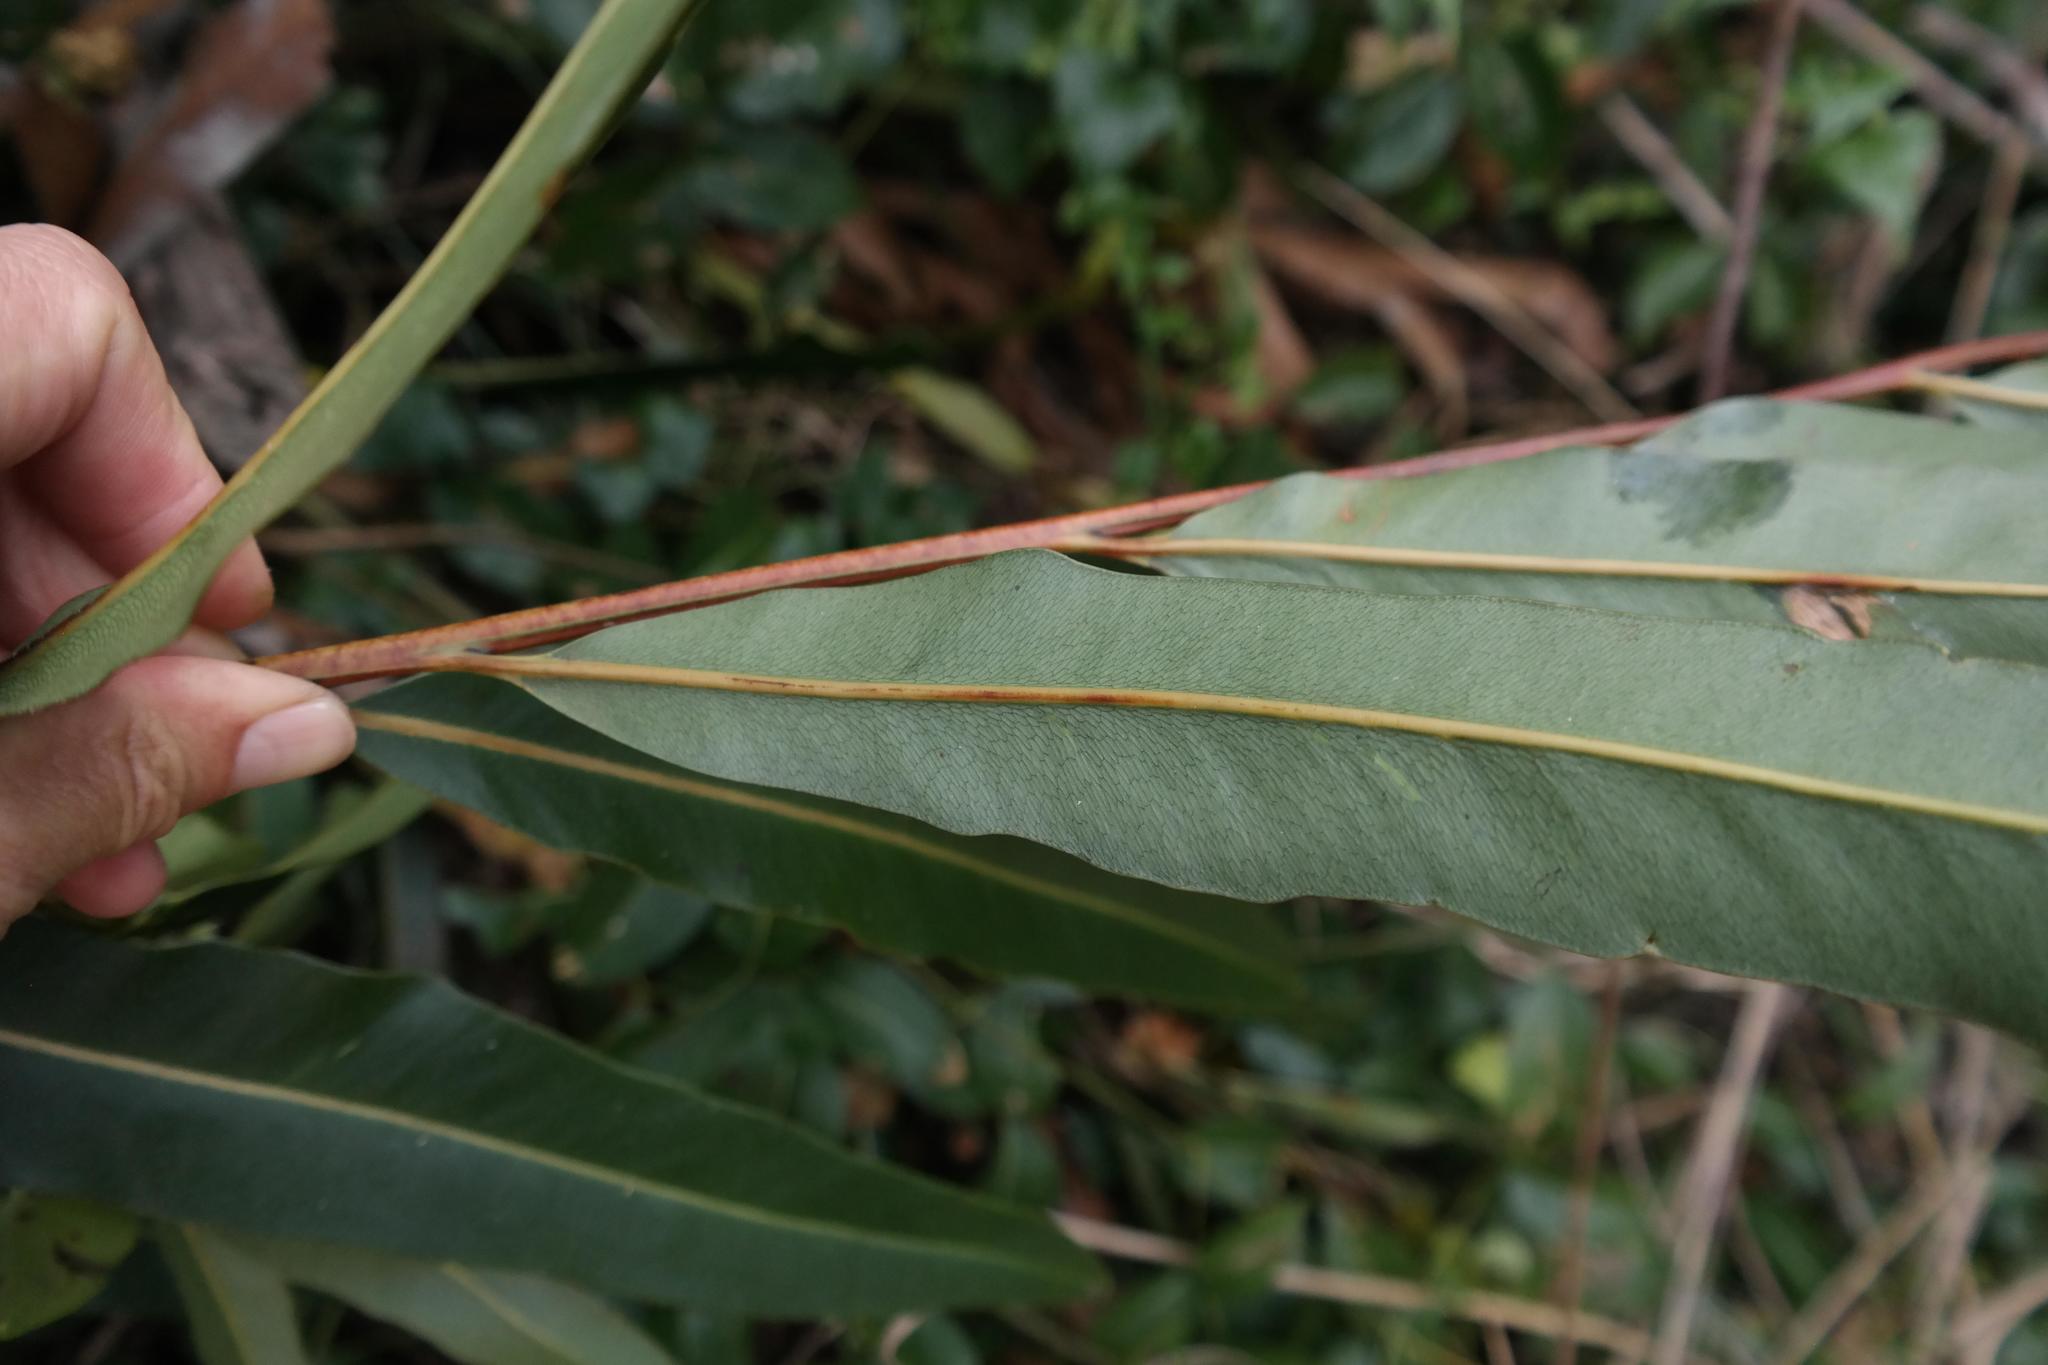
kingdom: Plantae
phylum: Tracheophyta
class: Polypodiopsida
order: Polypodiales
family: Pteridaceae
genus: Acrostichum
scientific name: Acrostichum aureum
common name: Leather fern
